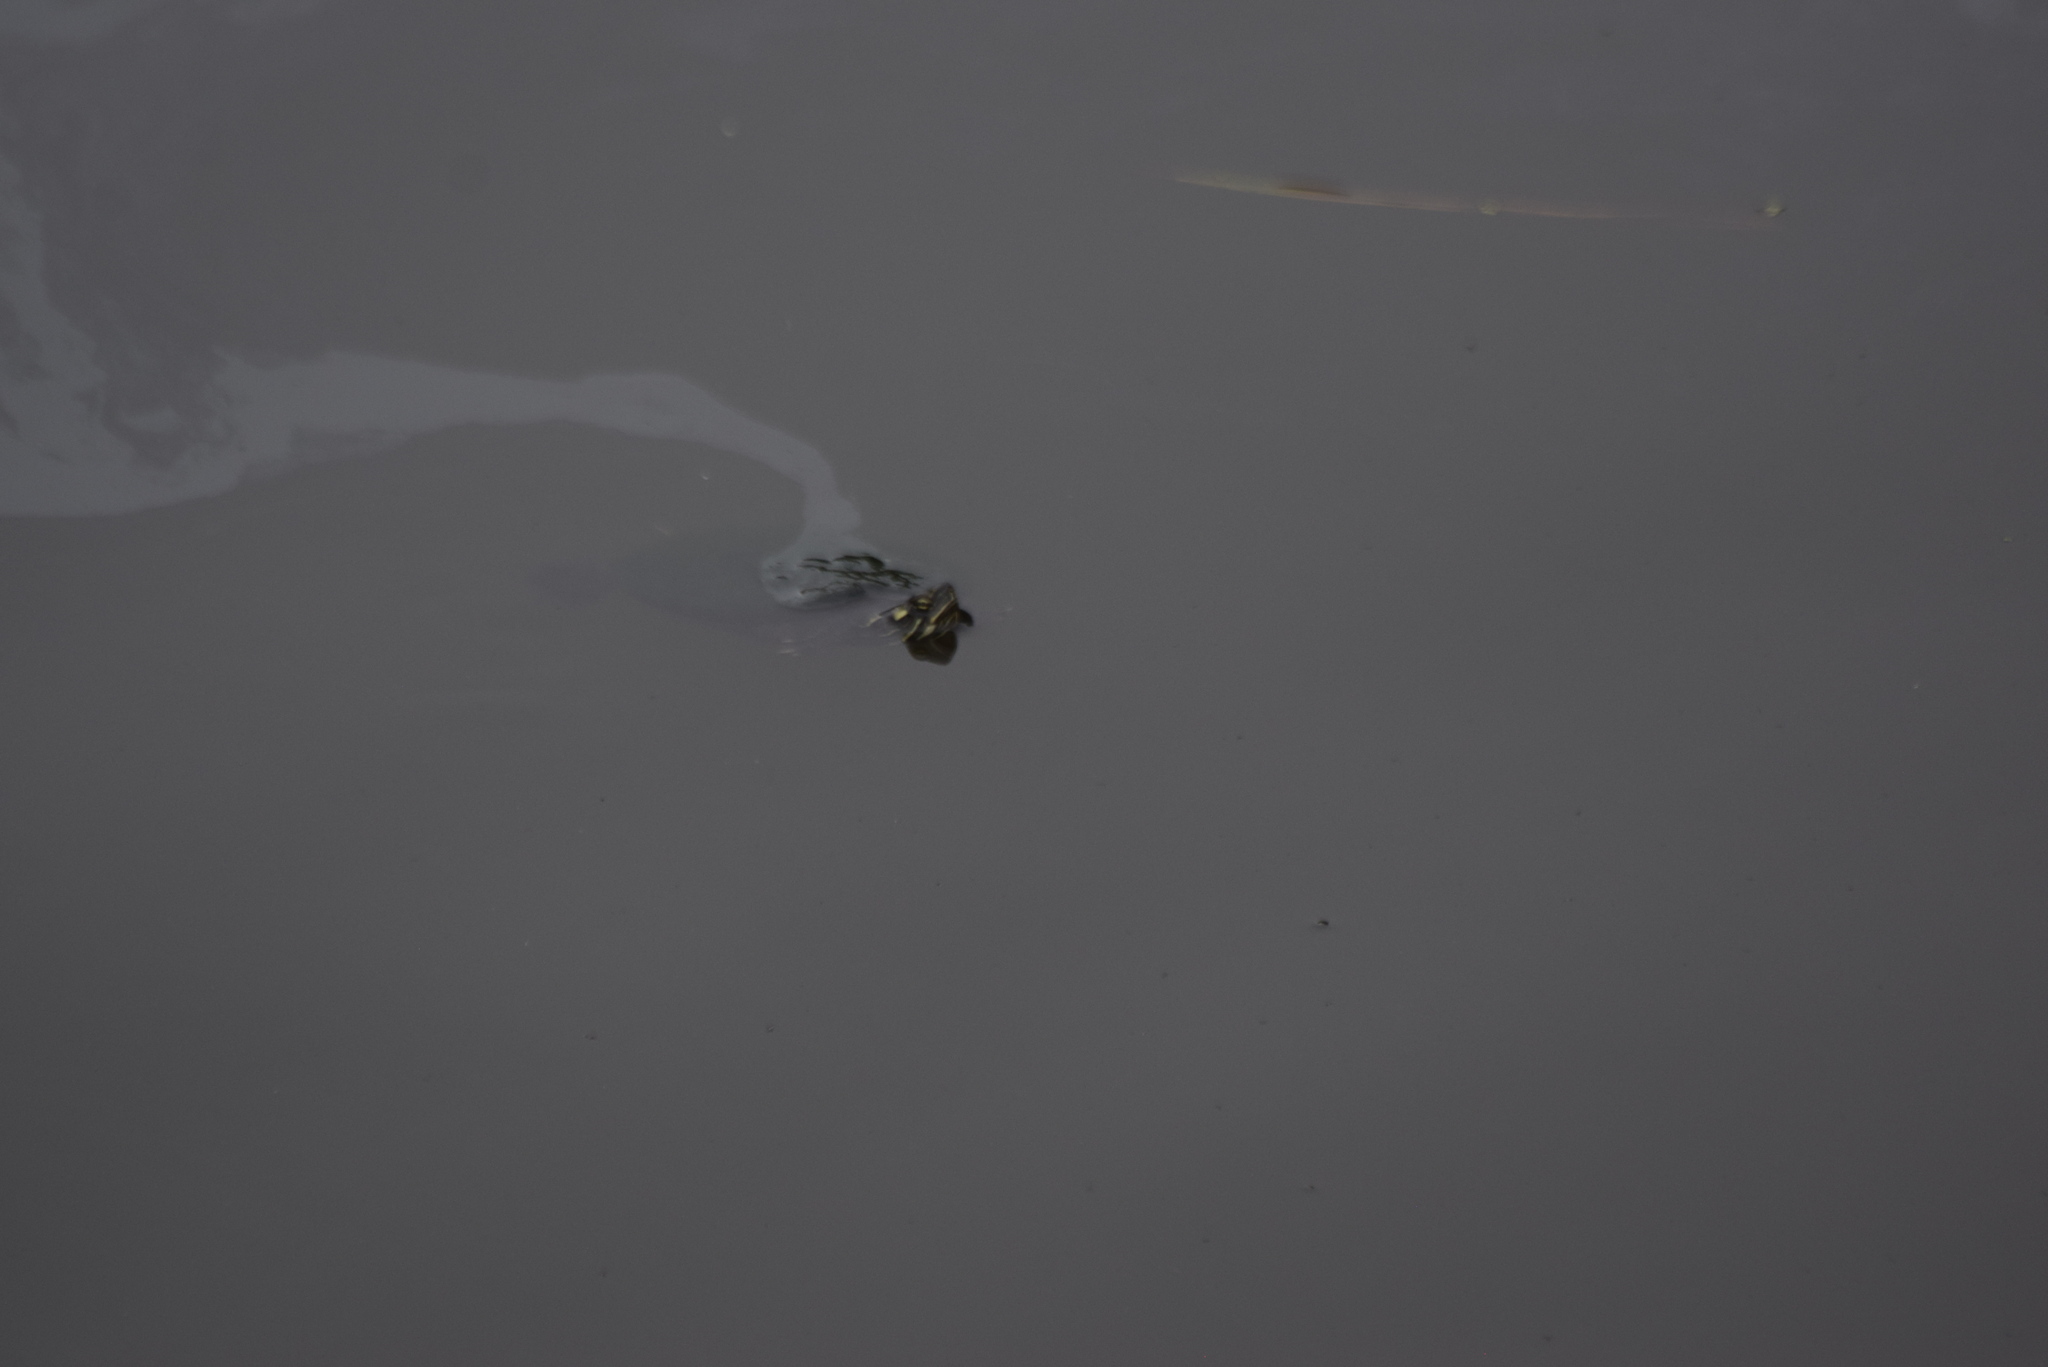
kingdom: Animalia
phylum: Chordata
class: Testudines
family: Emydidae
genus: Chrysemys
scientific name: Chrysemys picta
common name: Painted turtle
